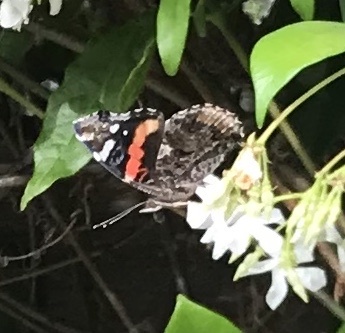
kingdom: Animalia
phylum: Arthropoda
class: Insecta
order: Lepidoptera
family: Nymphalidae
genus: Vanessa
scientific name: Vanessa atalanta
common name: Red admiral
